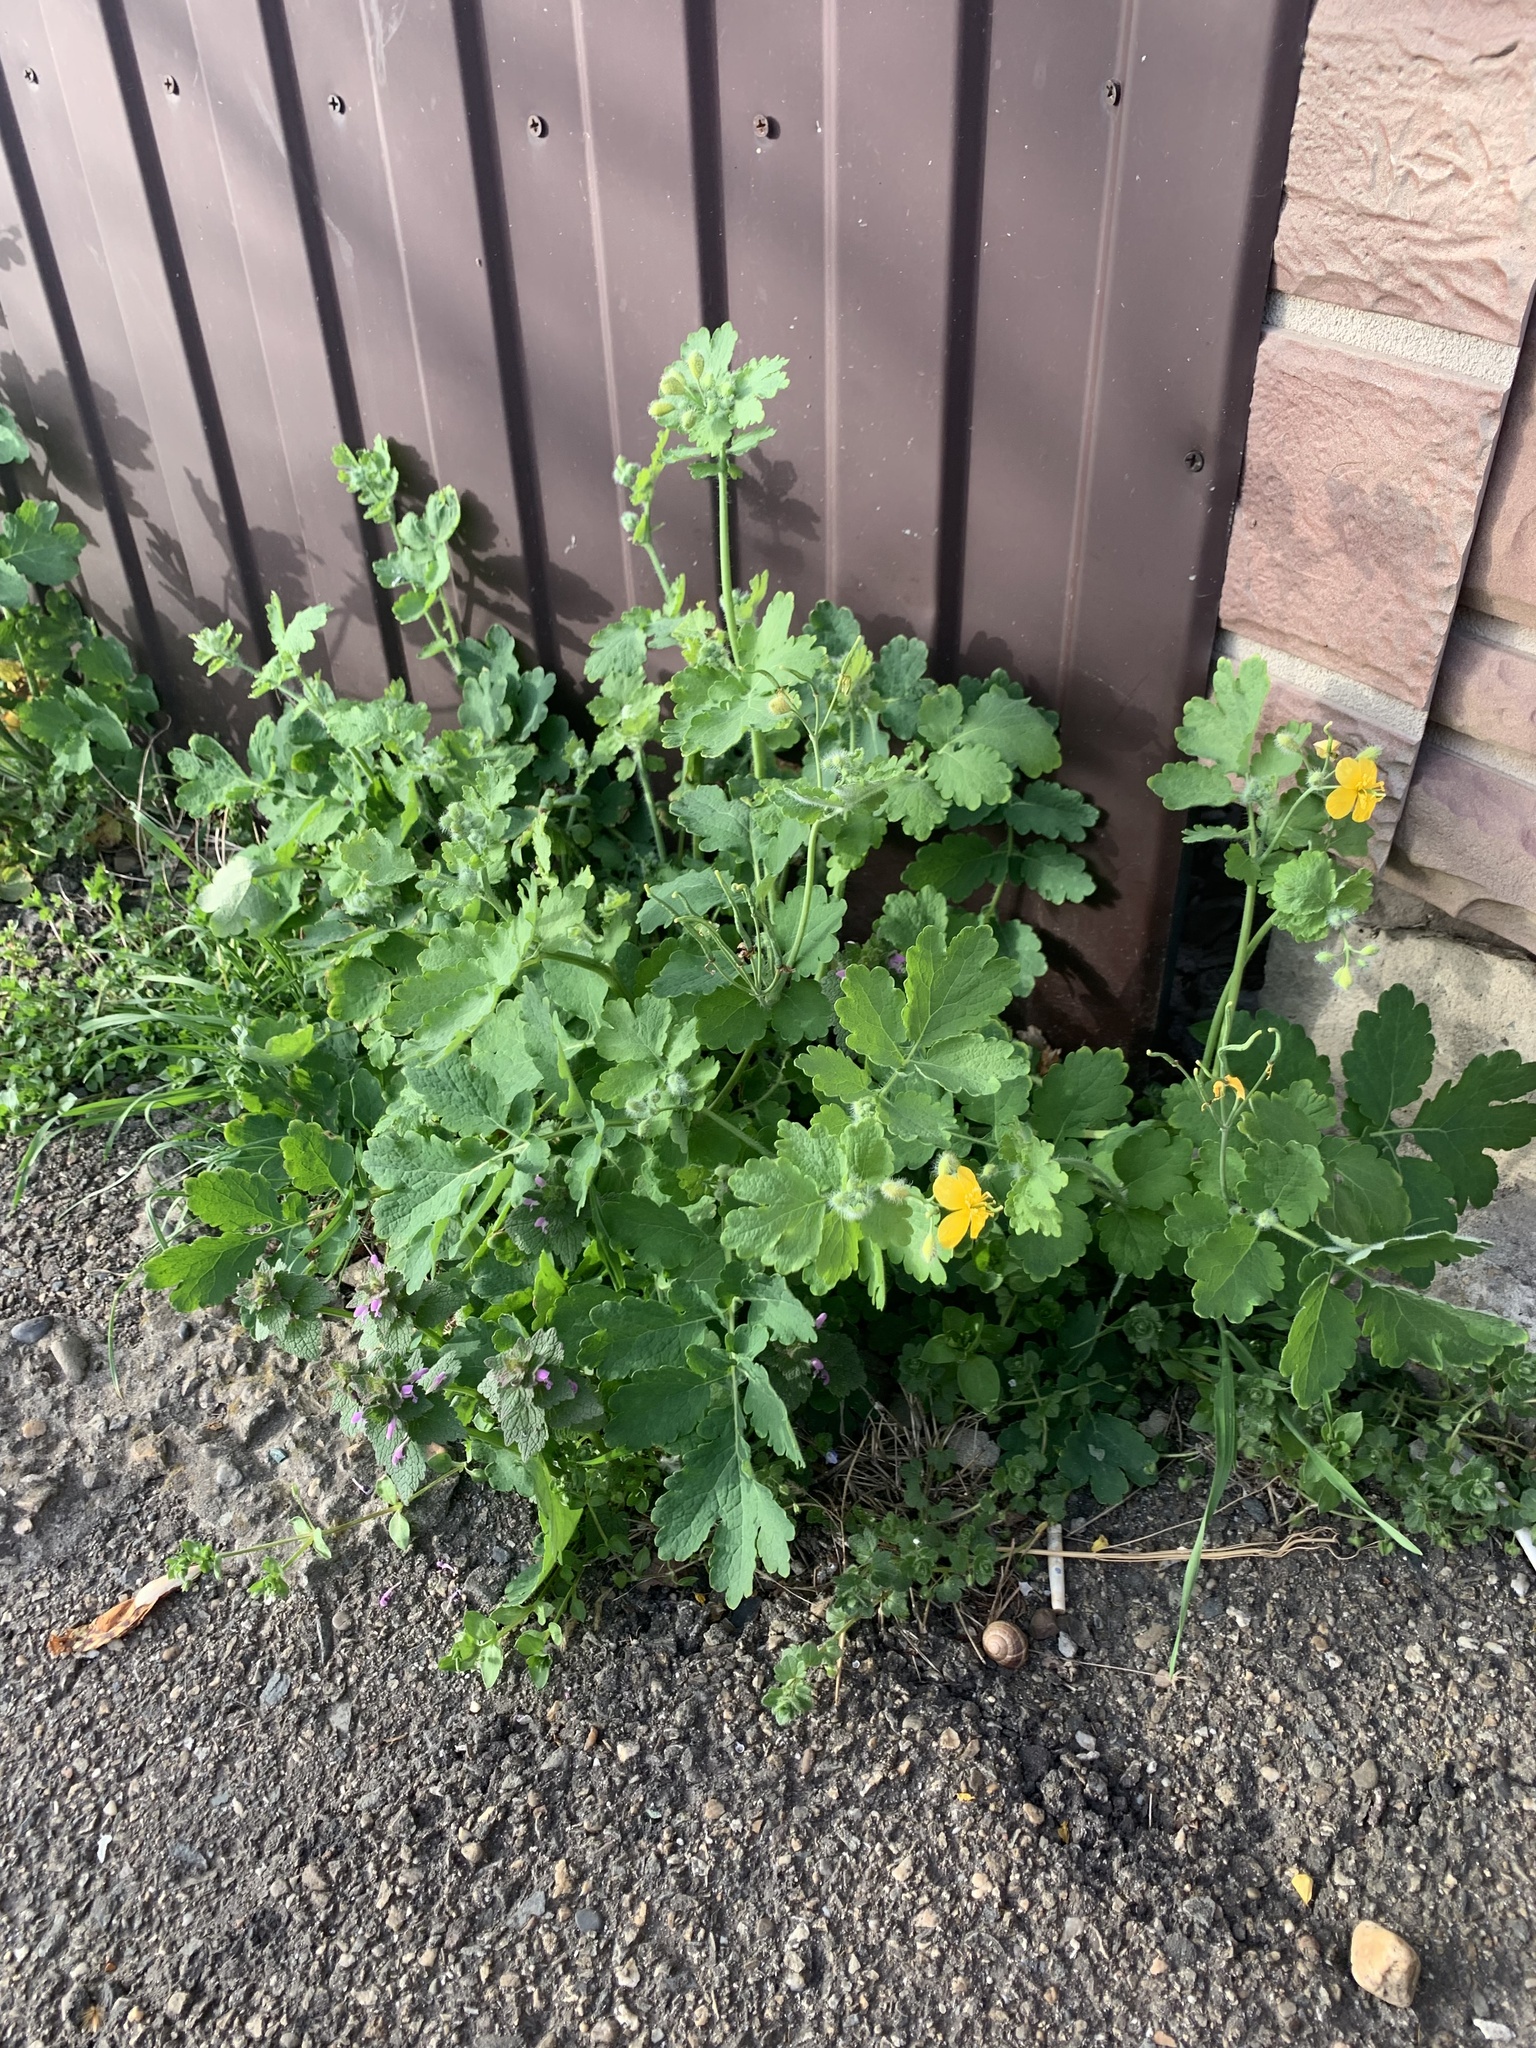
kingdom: Plantae
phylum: Tracheophyta
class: Magnoliopsida
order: Ranunculales
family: Papaveraceae
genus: Chelidonium
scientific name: Chelidonium majus
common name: Greater celandine
